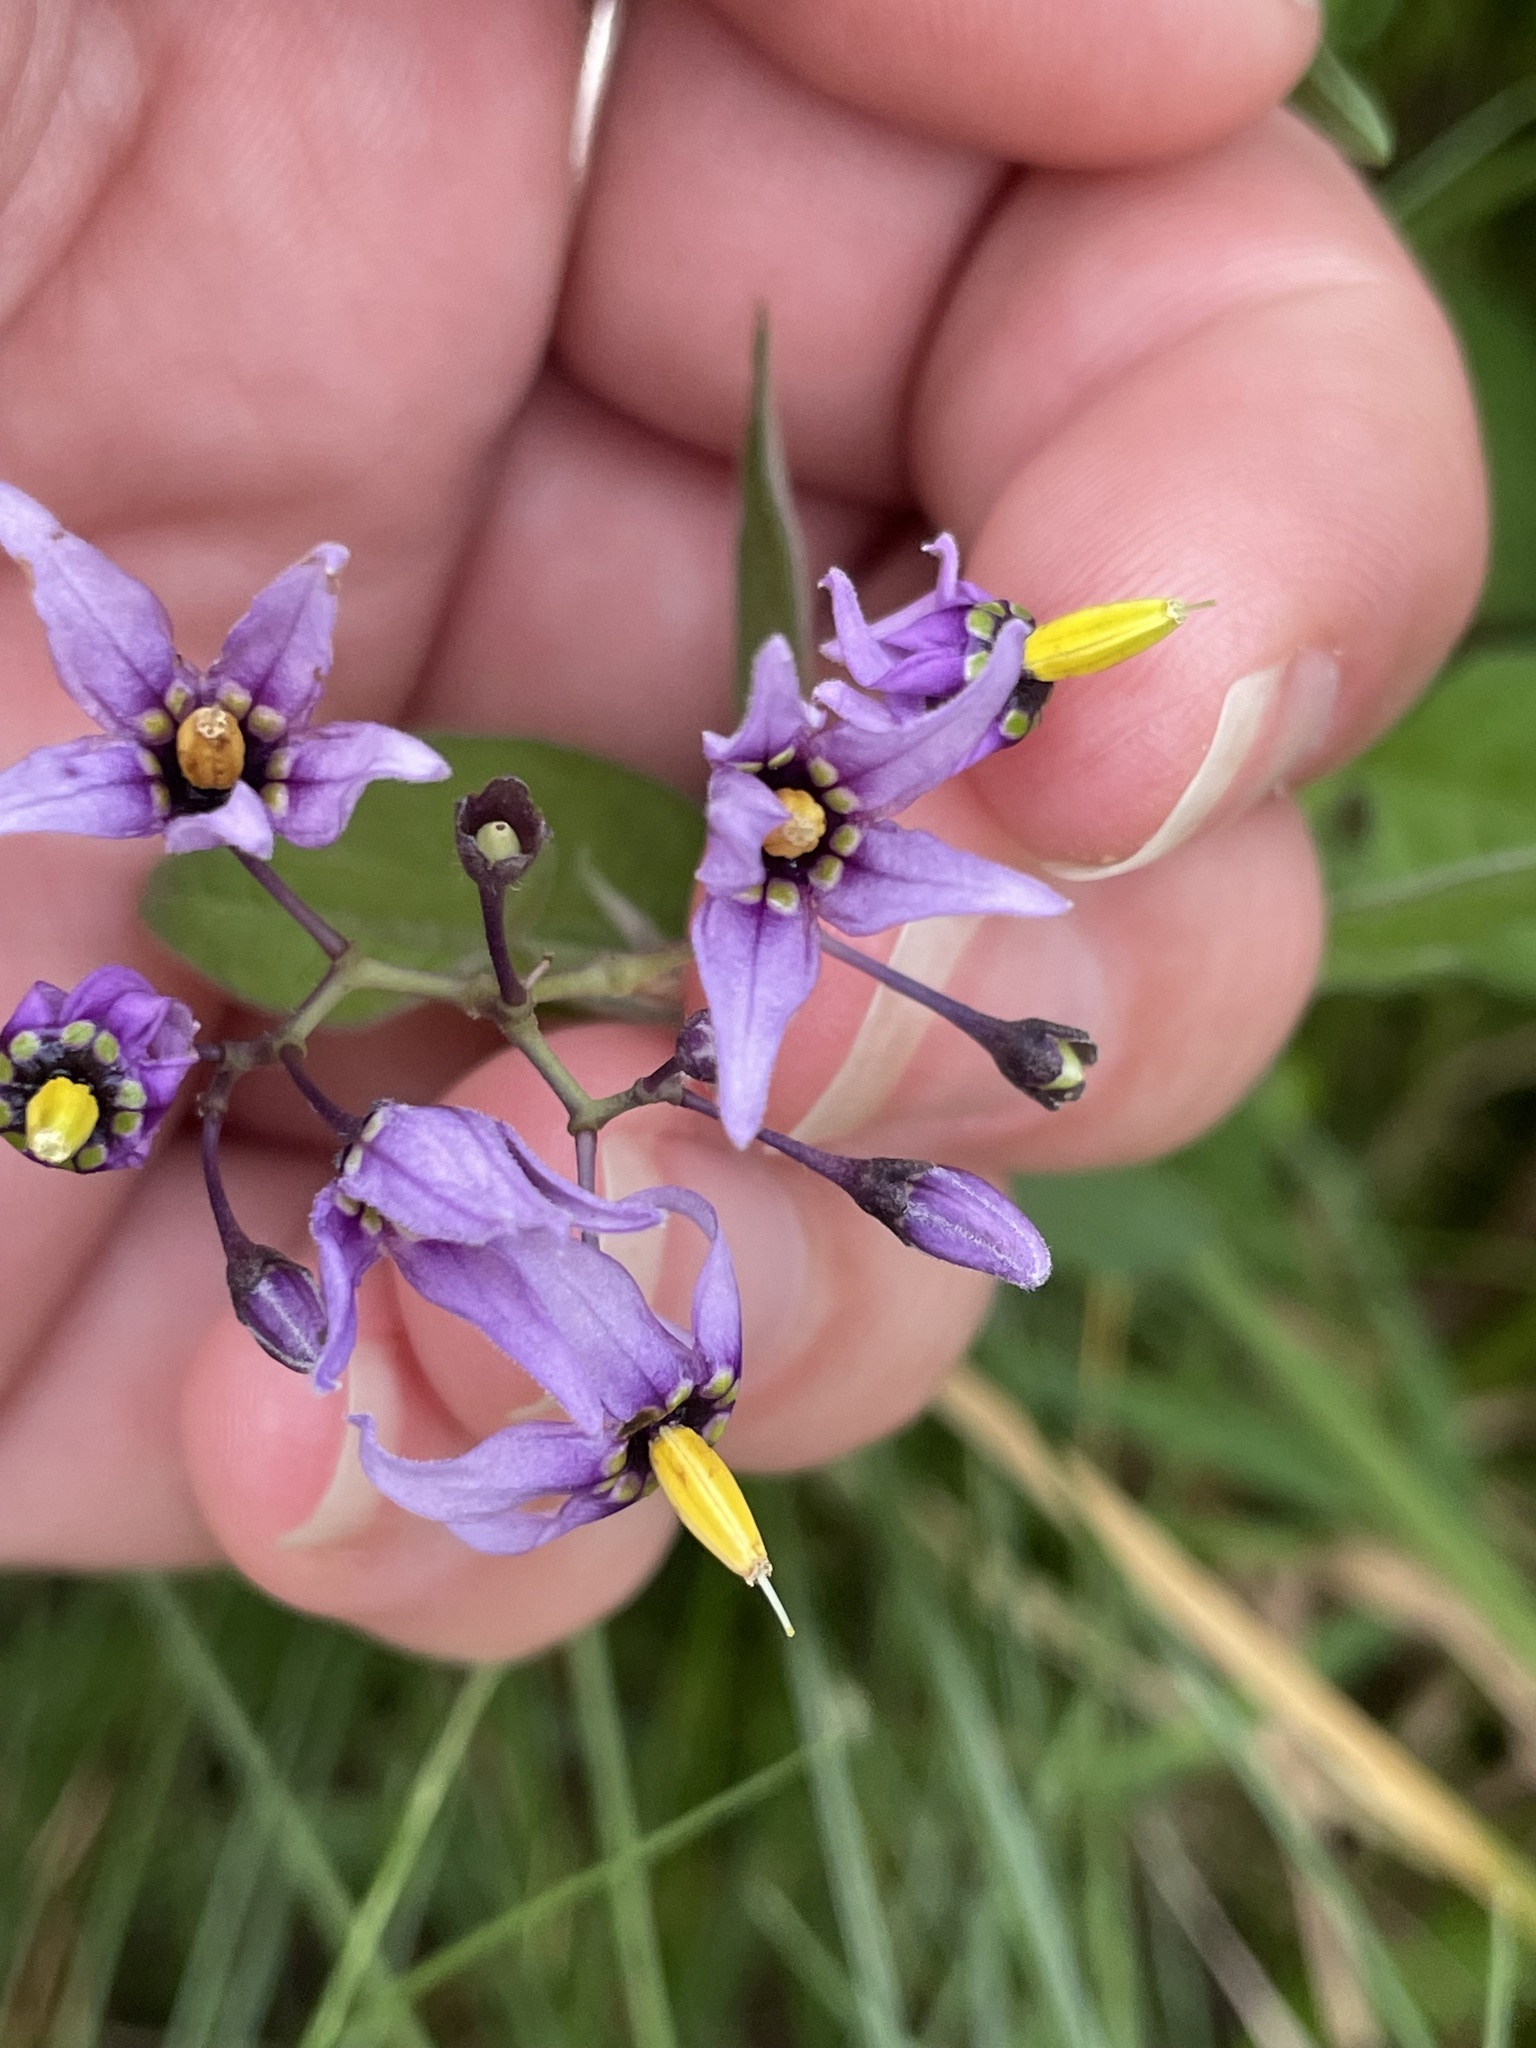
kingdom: Plantae
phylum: Tracheophyta
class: Magnoliopsida
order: Solanales
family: Solanaceae
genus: Solanum
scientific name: Solanum dulcamara
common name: Climbing nightshade
